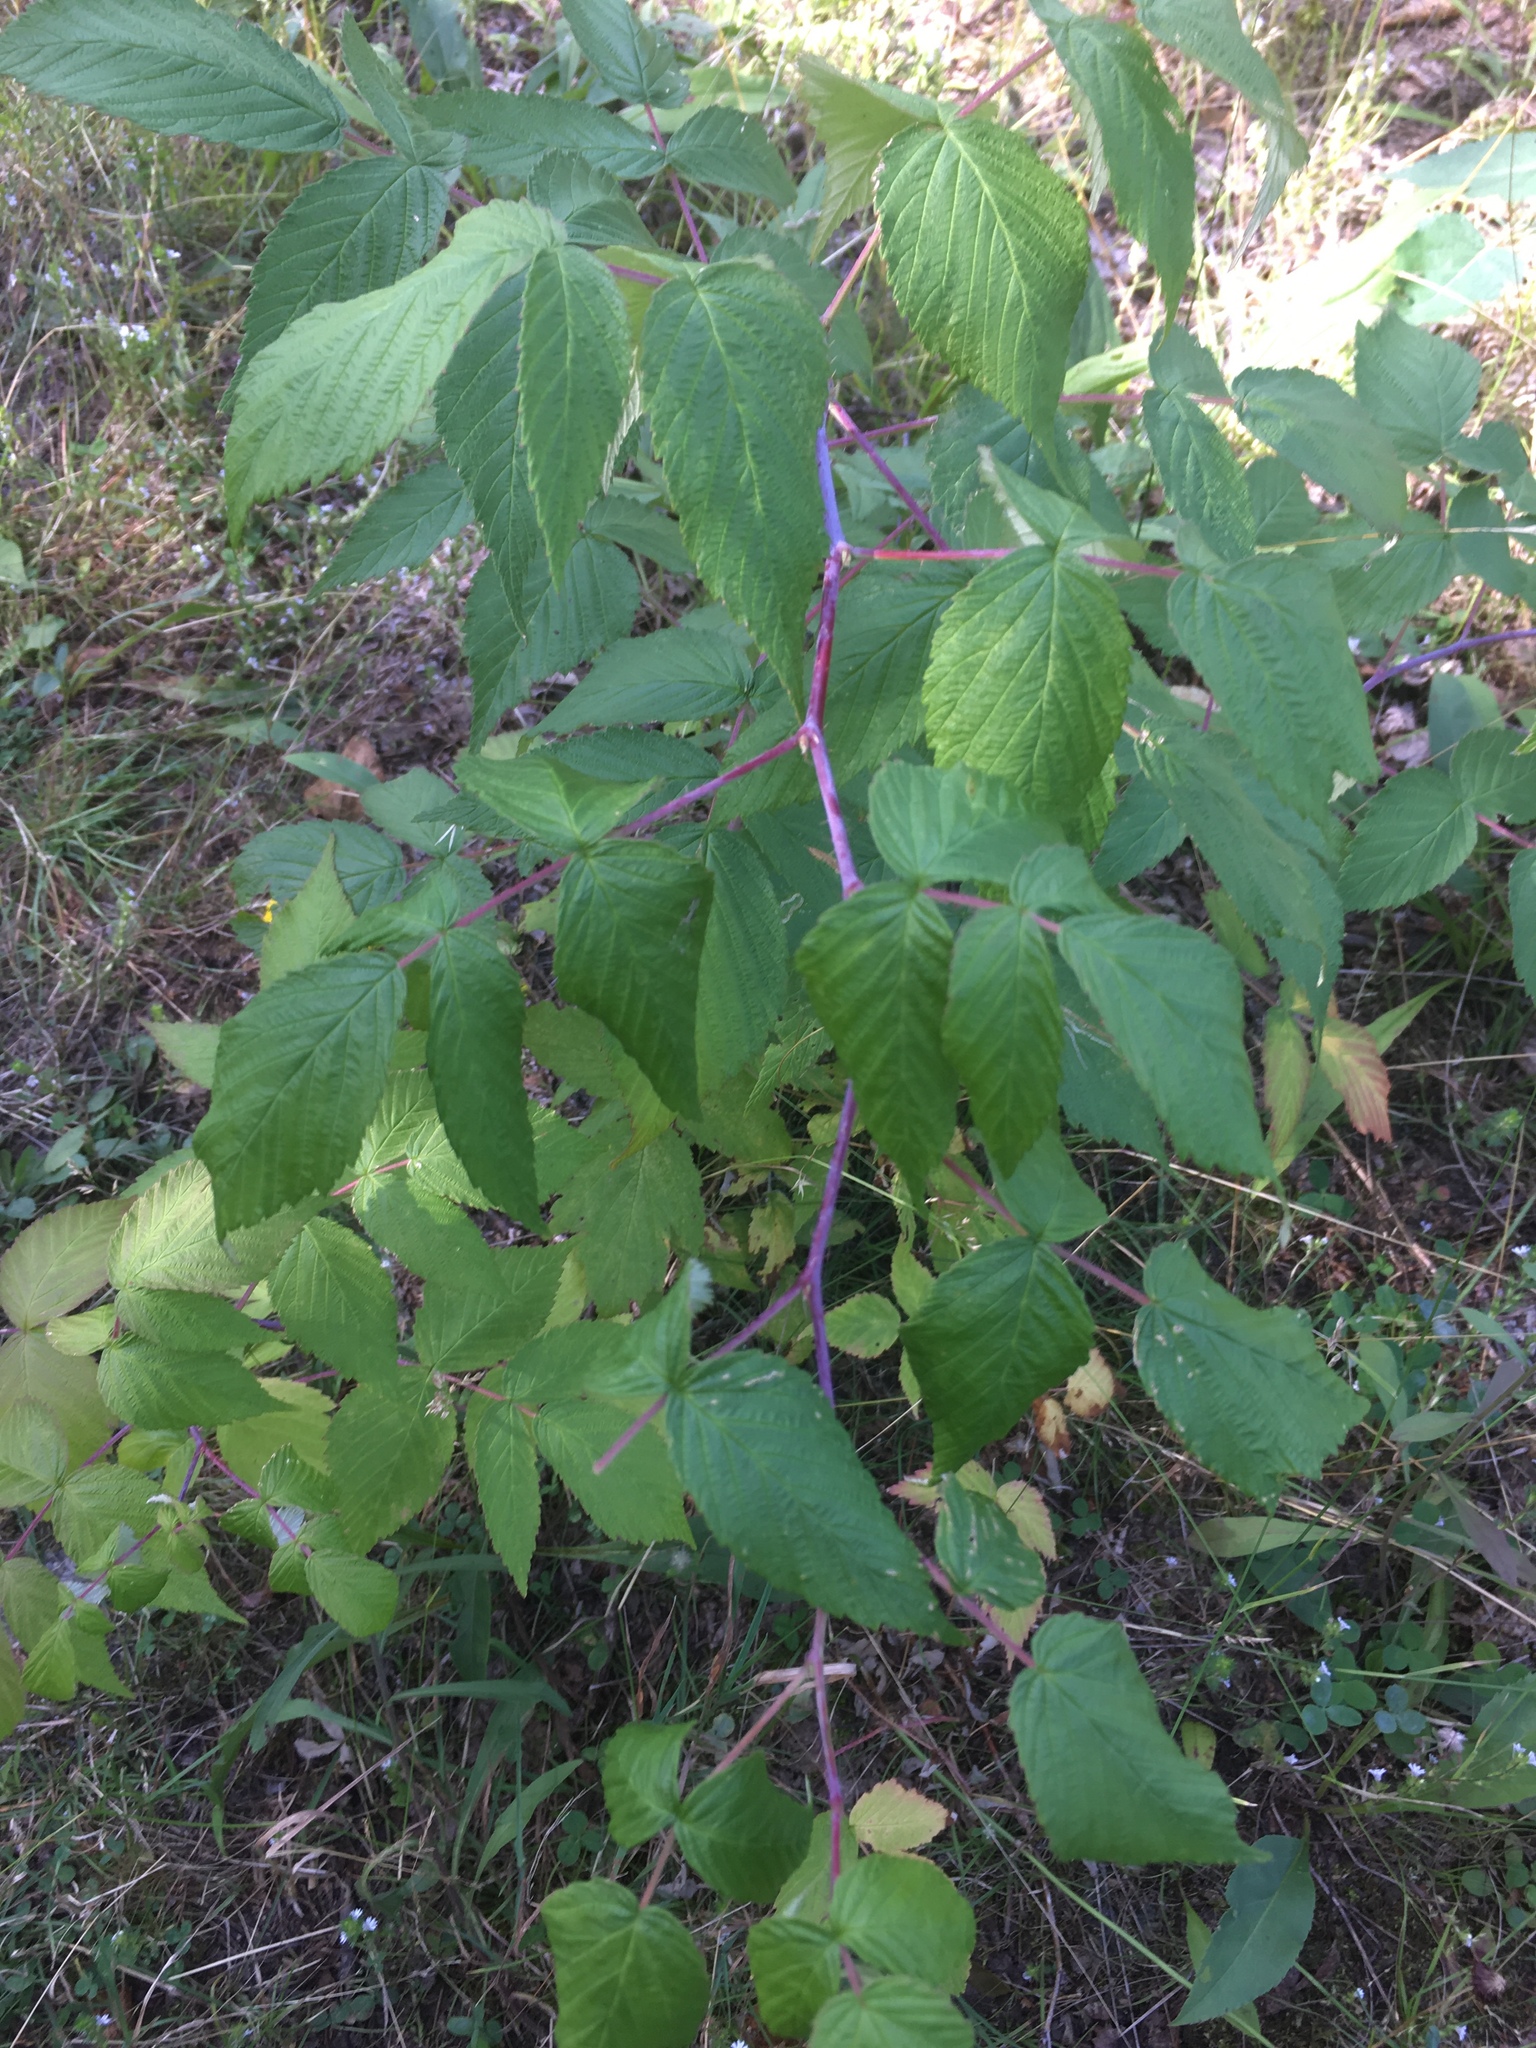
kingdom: Plantae
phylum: Tracheophyta
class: Magnoliopsida
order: Rosales
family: Rosaceae
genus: Rubus
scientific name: Rubus occidentalis
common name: Black raspberry
